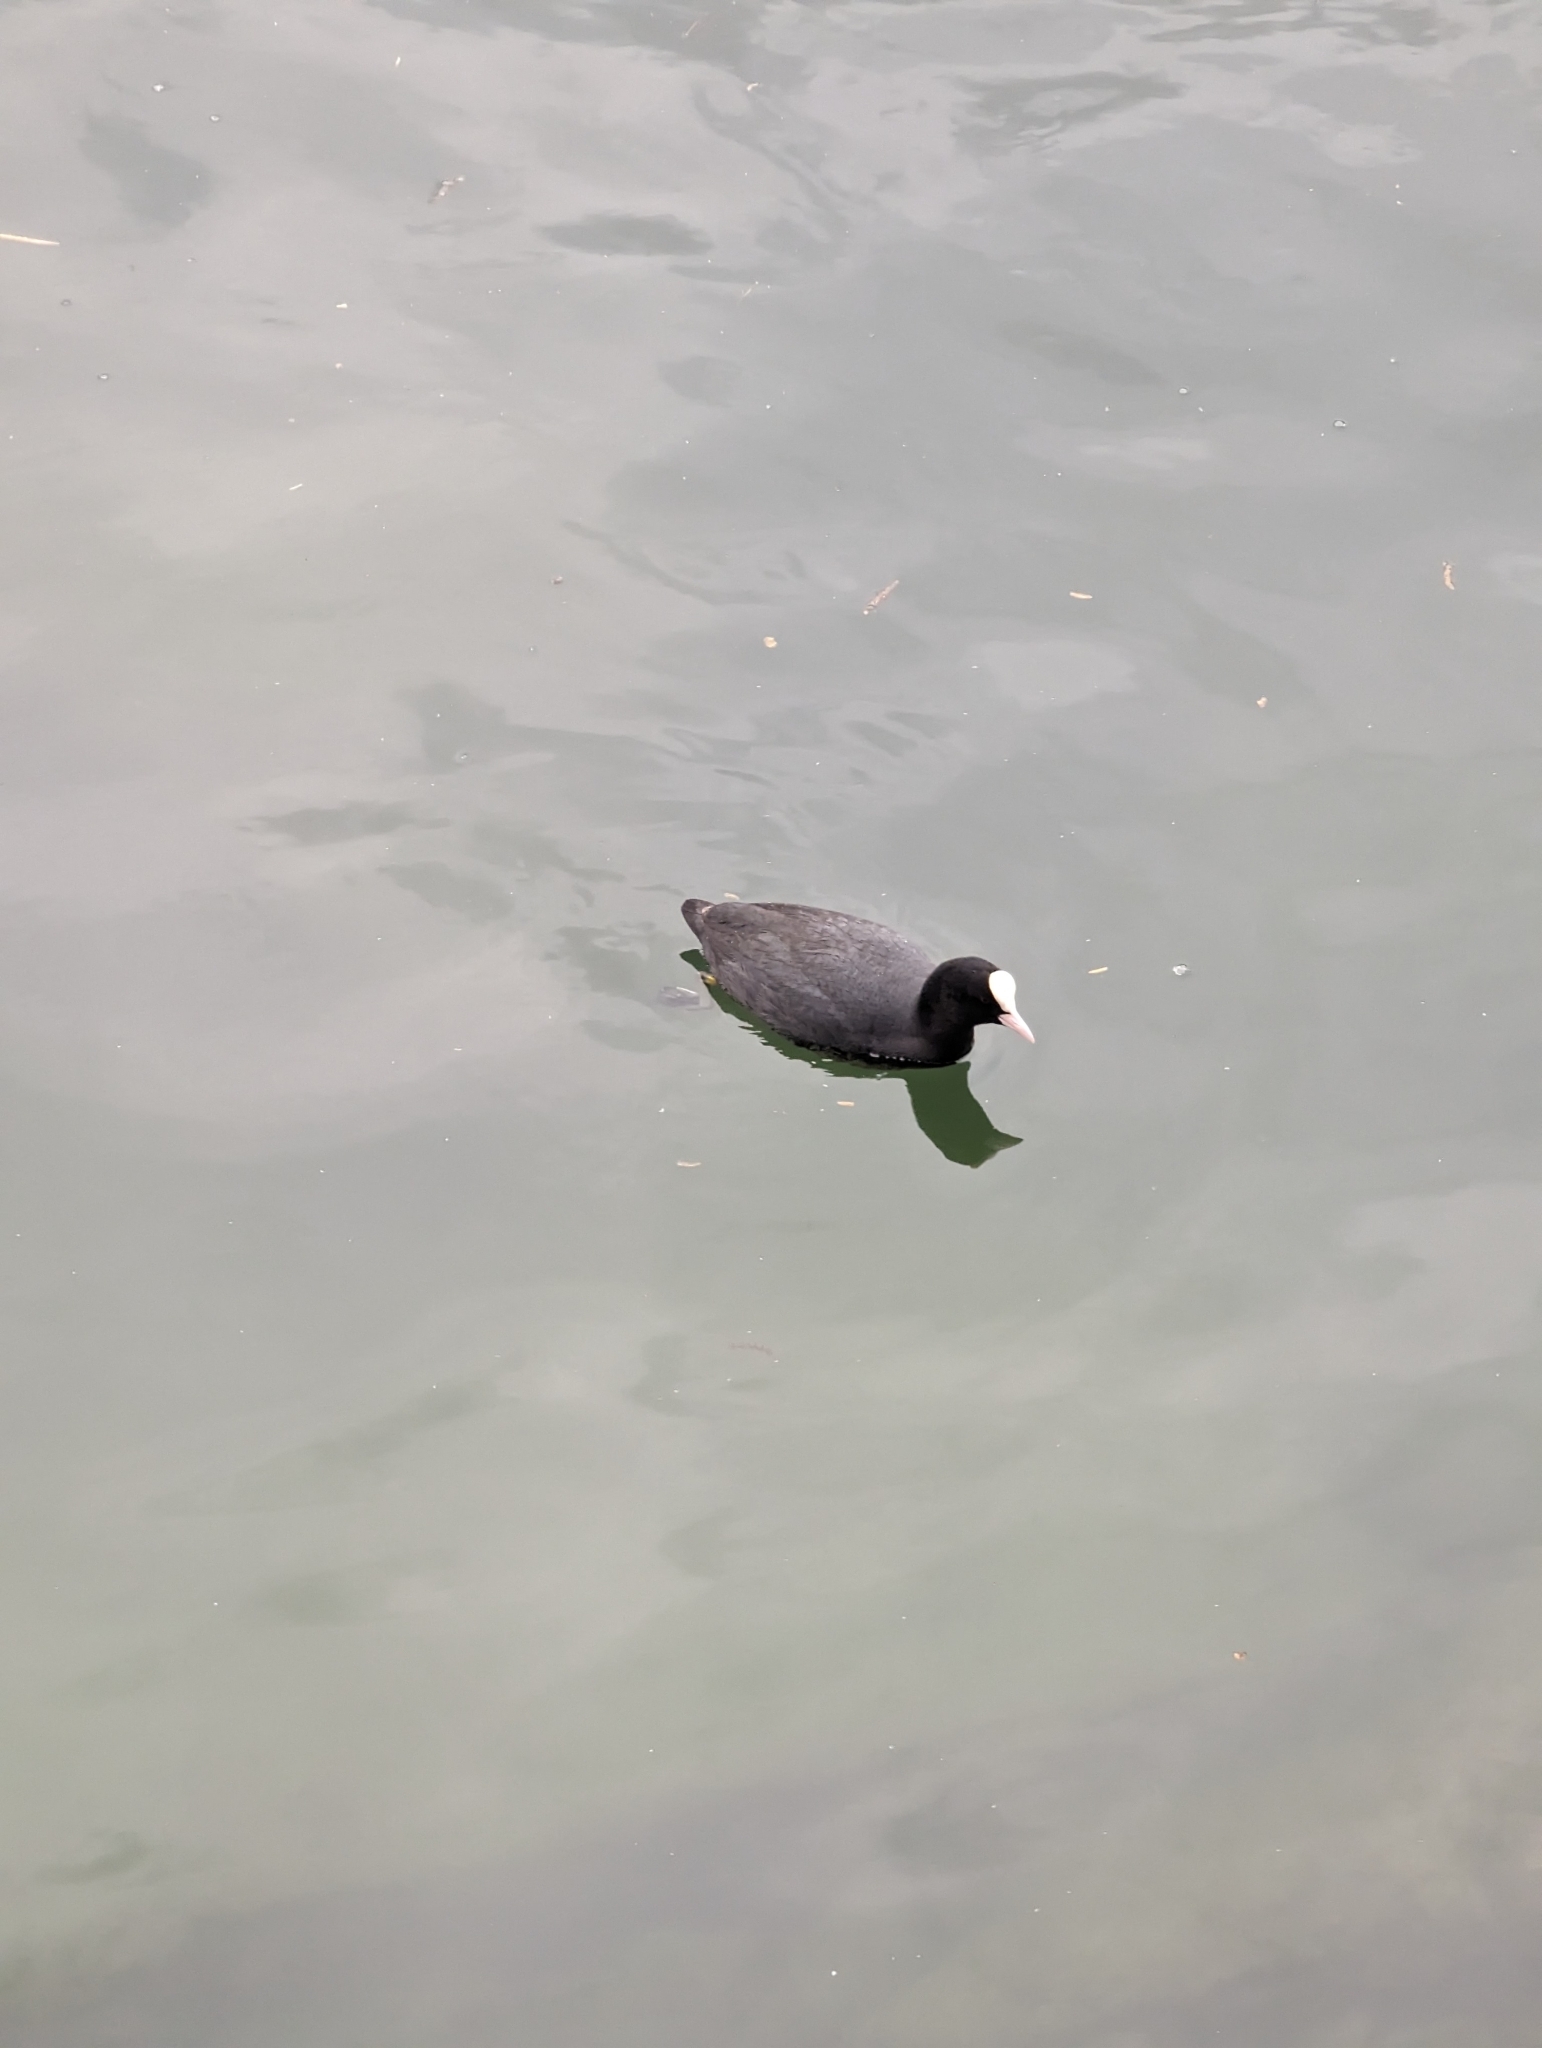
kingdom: Animalia
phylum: Chordata
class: Aves
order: Gruiformes
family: Rallidae
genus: Fulica
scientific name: Fulica atra
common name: Eurasian coot
